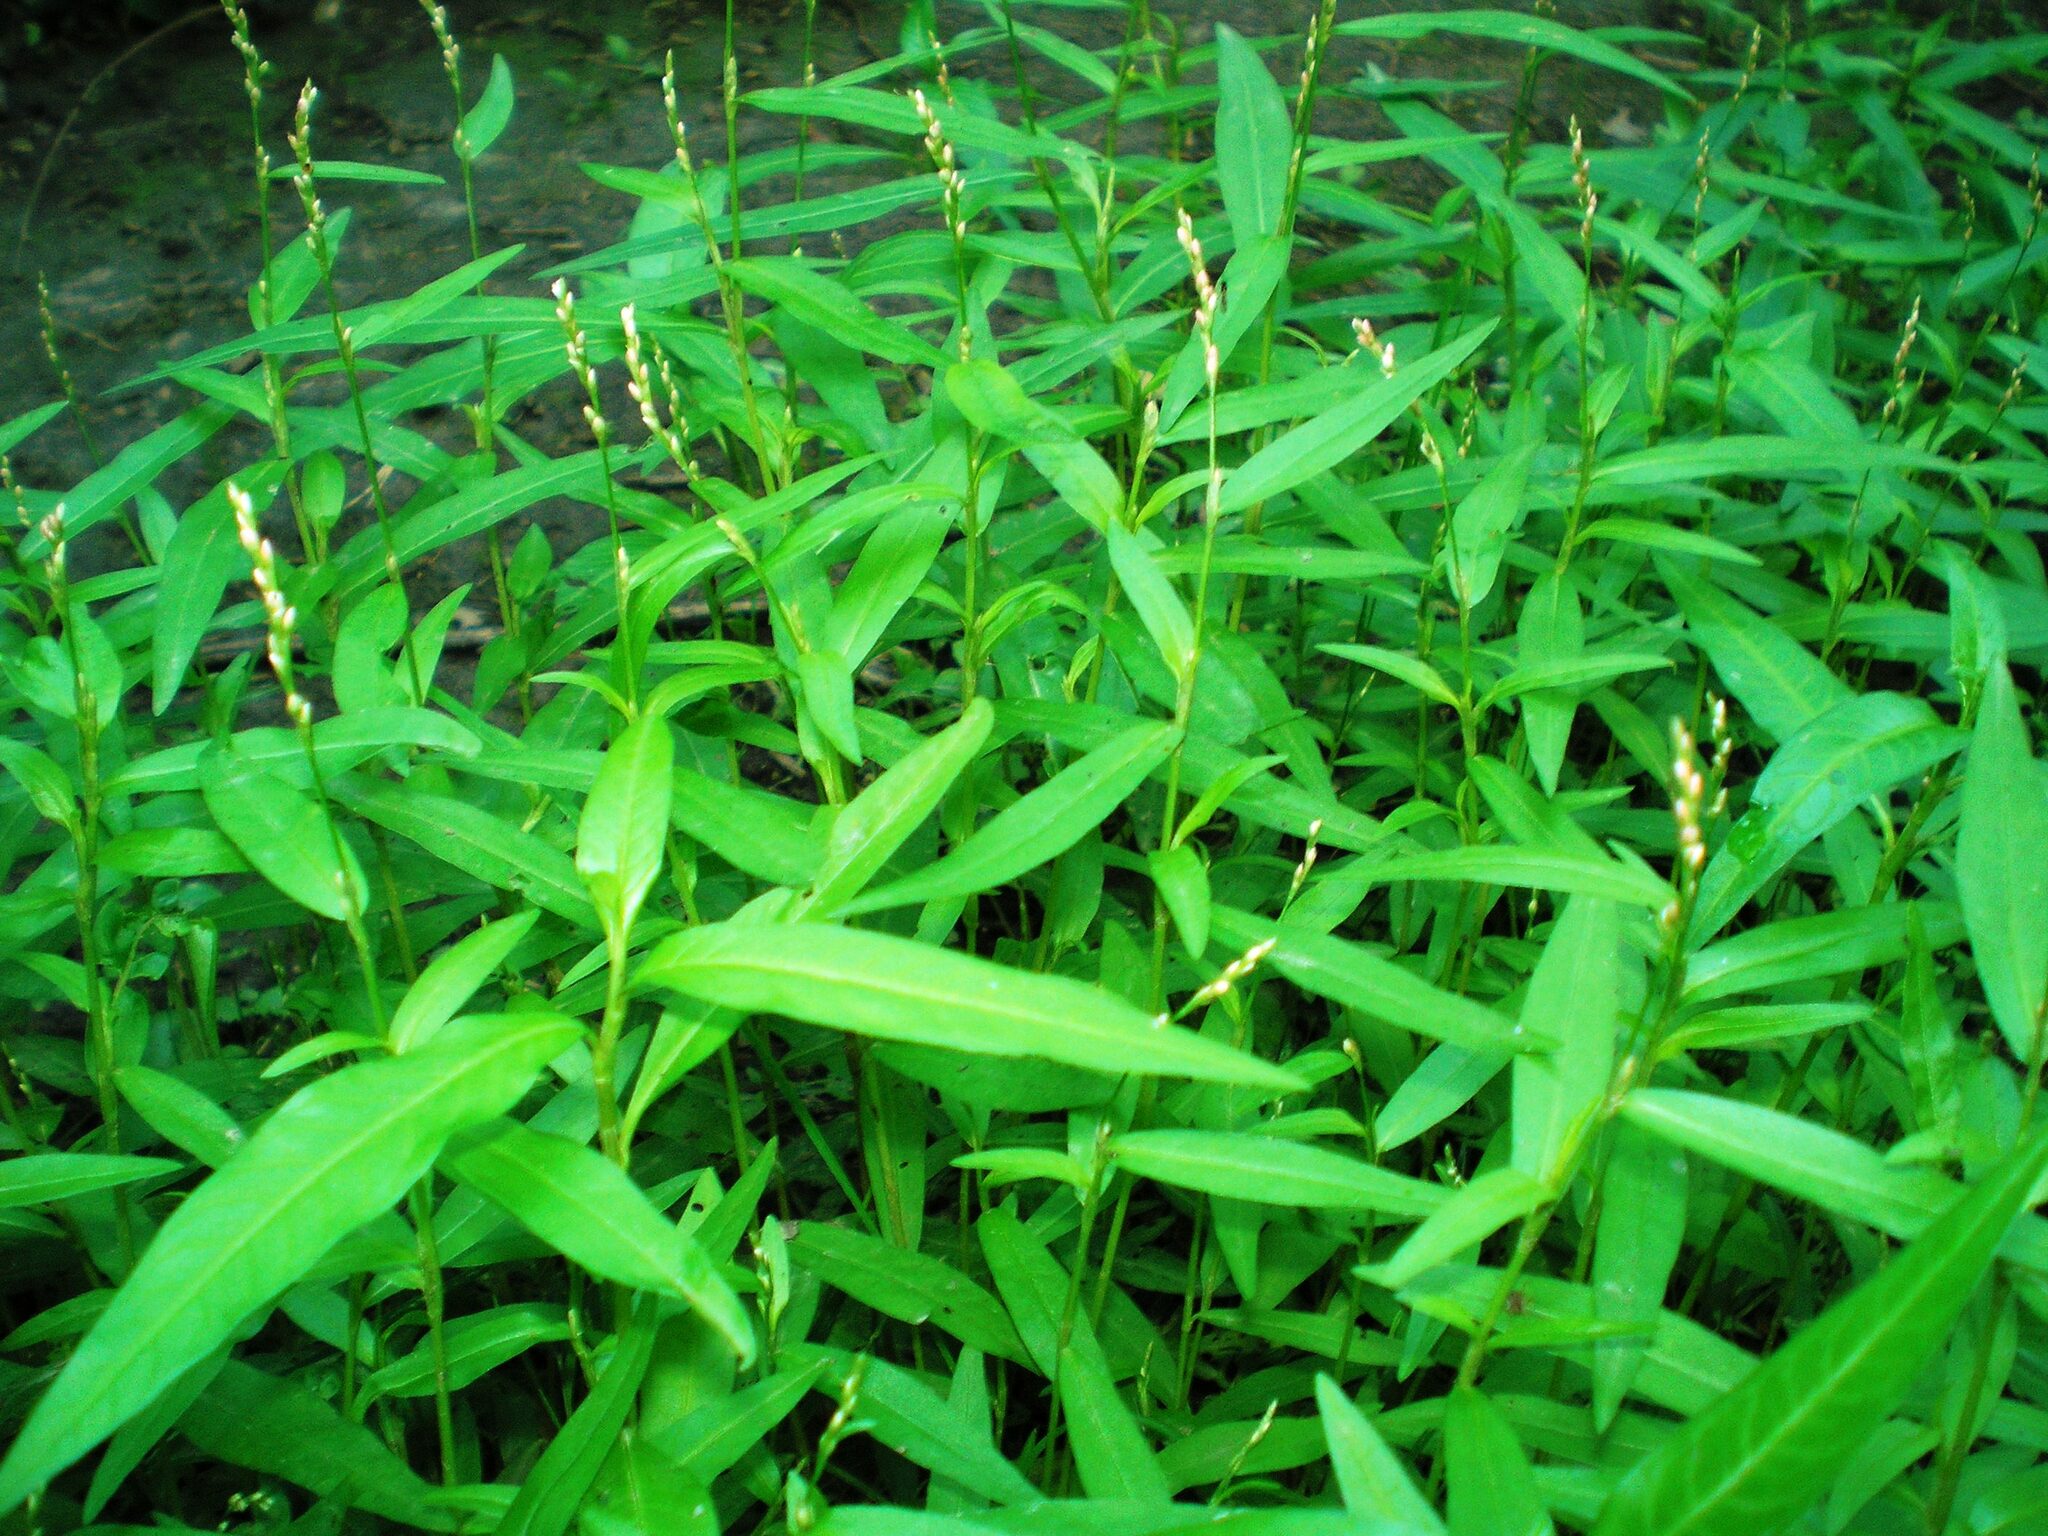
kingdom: Plantae
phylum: Tracheophyta
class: Magnoliopsida
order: Caryophyllales
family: Polygonaceae
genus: Persicaria
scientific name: Persicaria minor
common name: Small water-pepper
